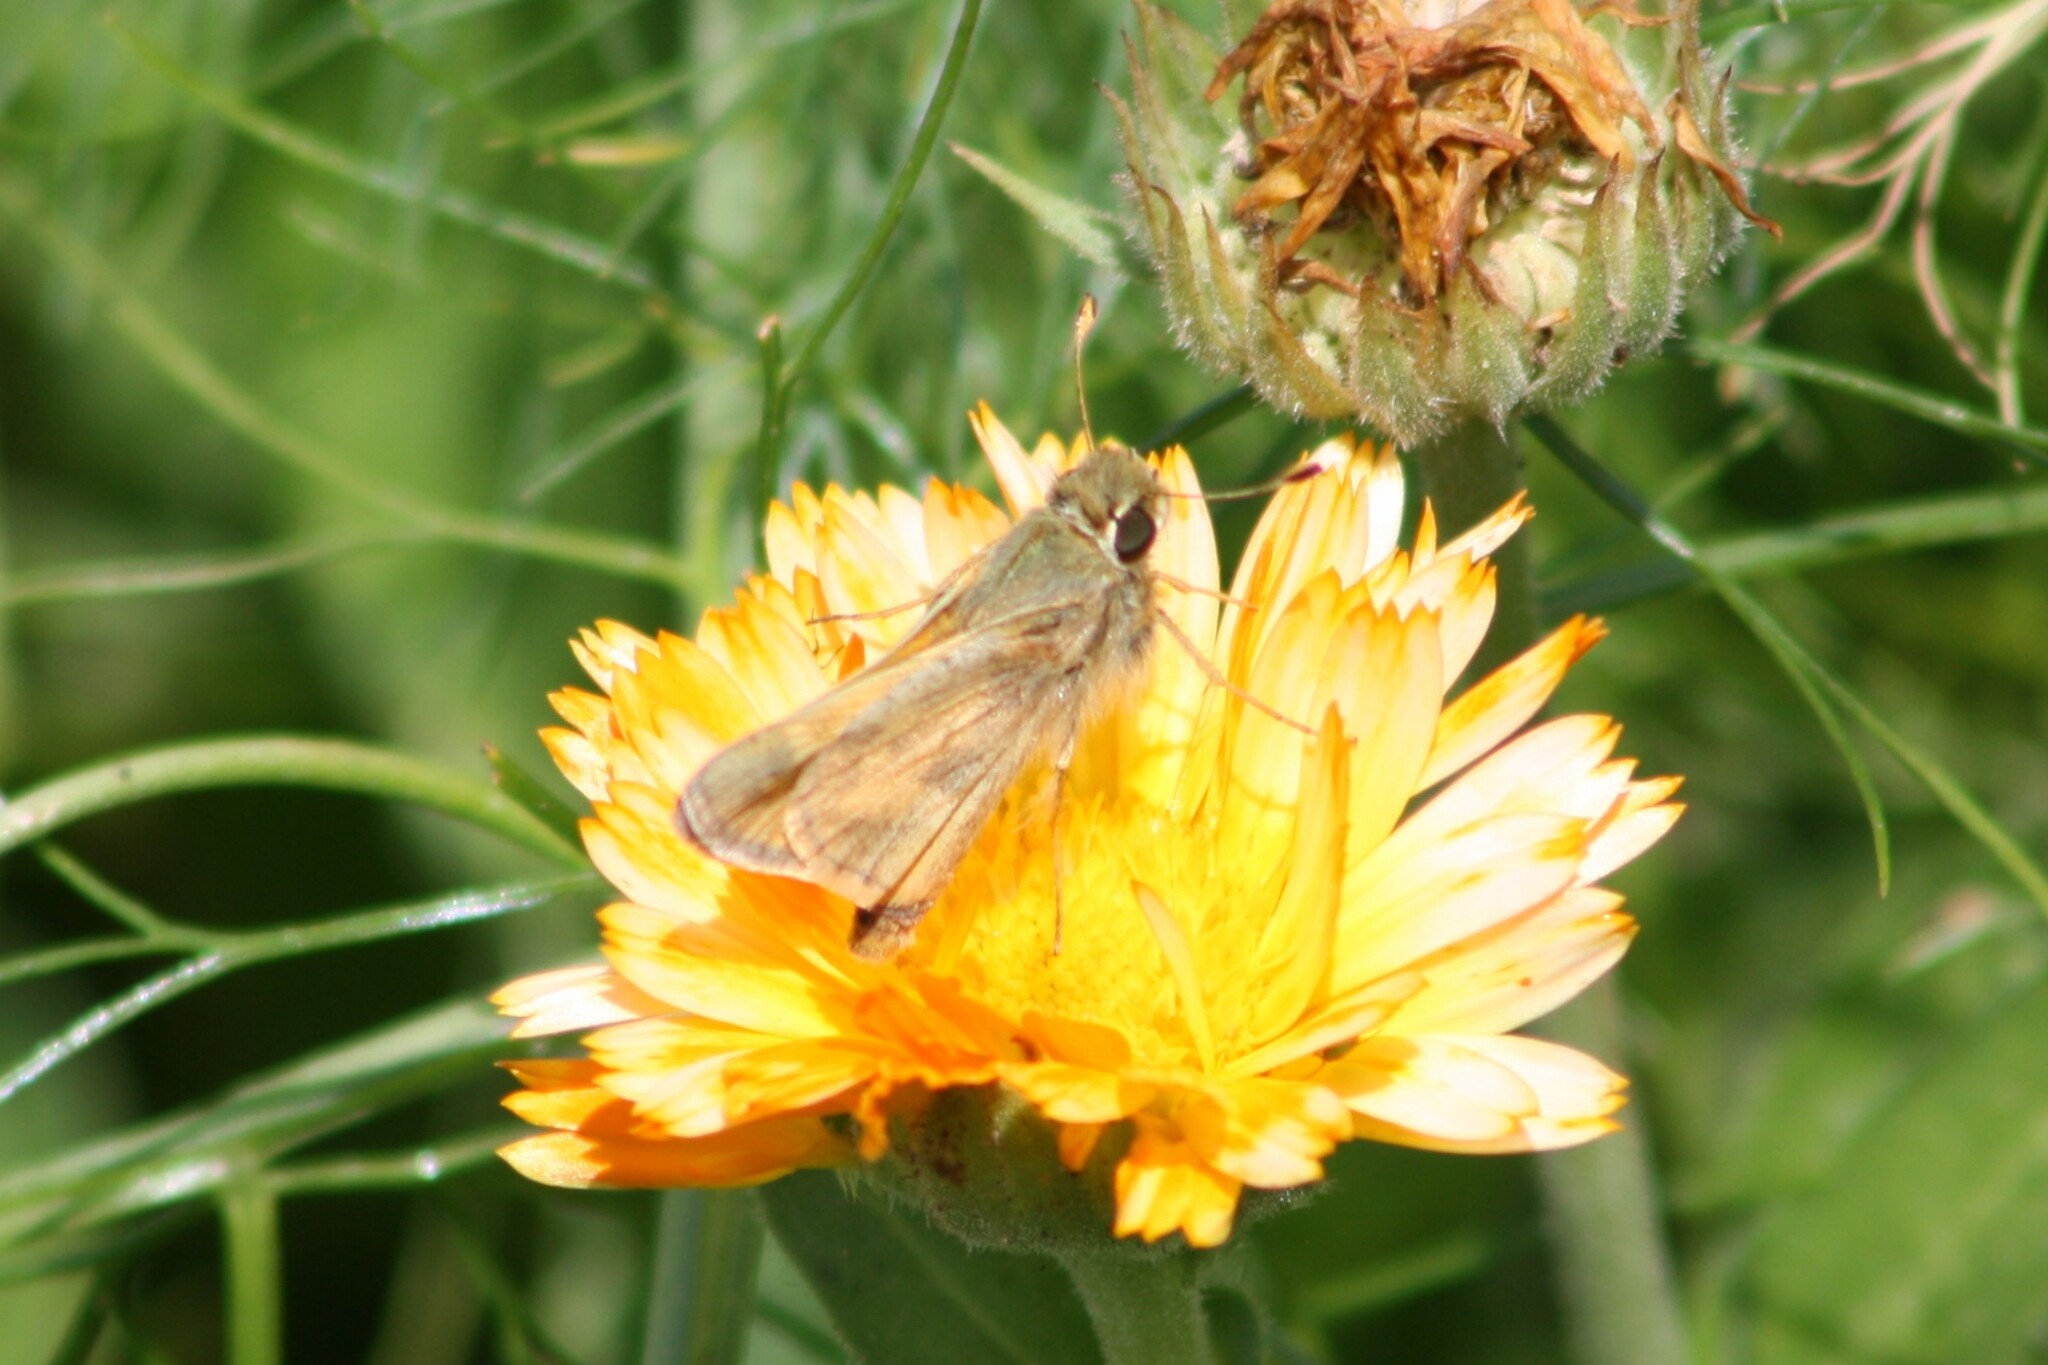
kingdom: Animalia
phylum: Arthropoda
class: Insecta
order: Lepidoptera
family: Hesperiidae
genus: Atalopedes
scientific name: Atalopedes
